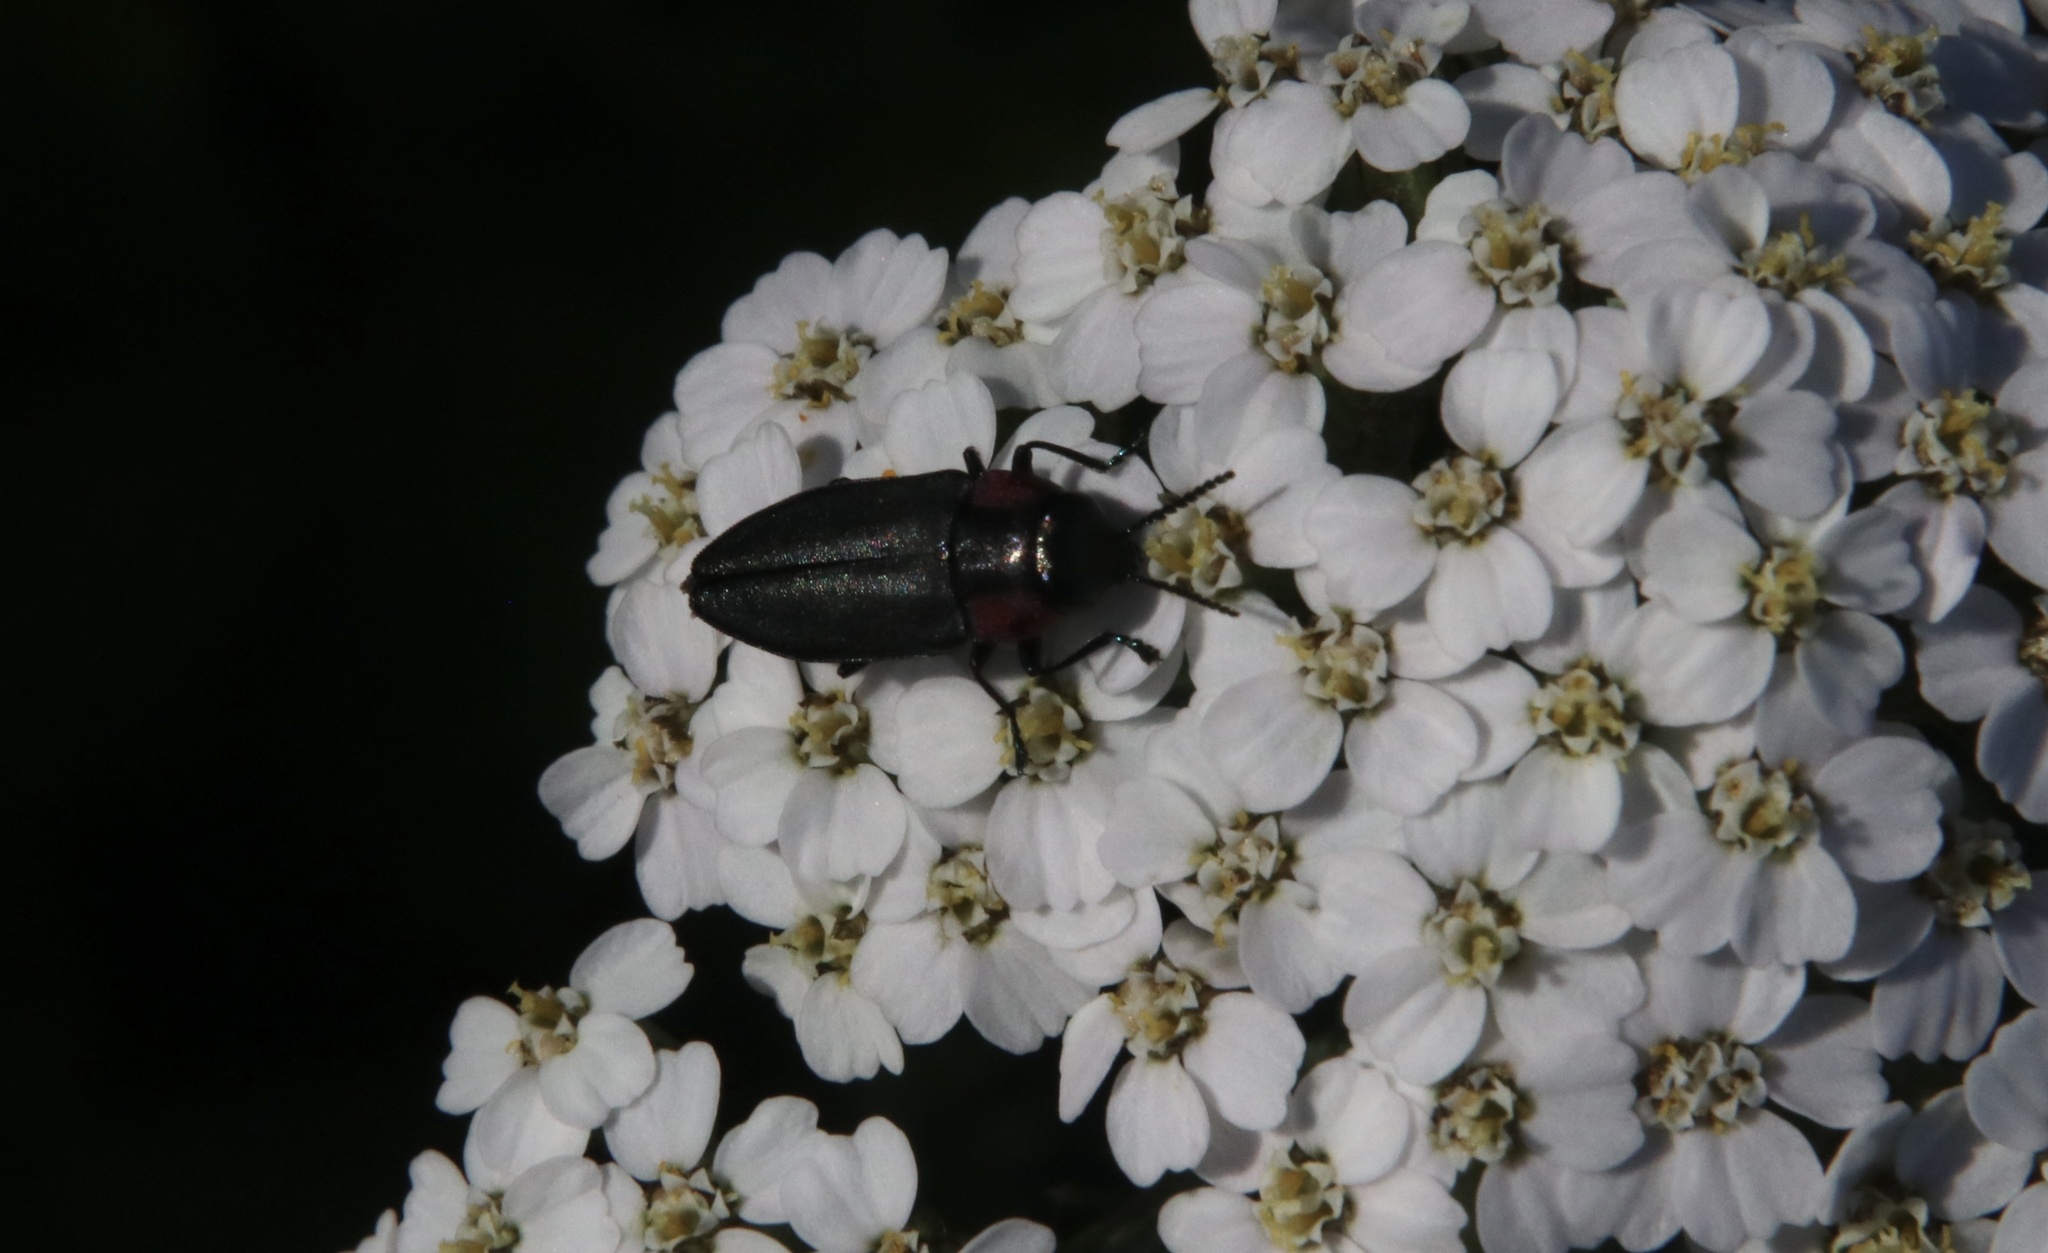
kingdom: Animalia
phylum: Arthropoda
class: Insecta
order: Coleoptera
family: Buprestidae
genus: Romanophora
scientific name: Romanophora verecunda
